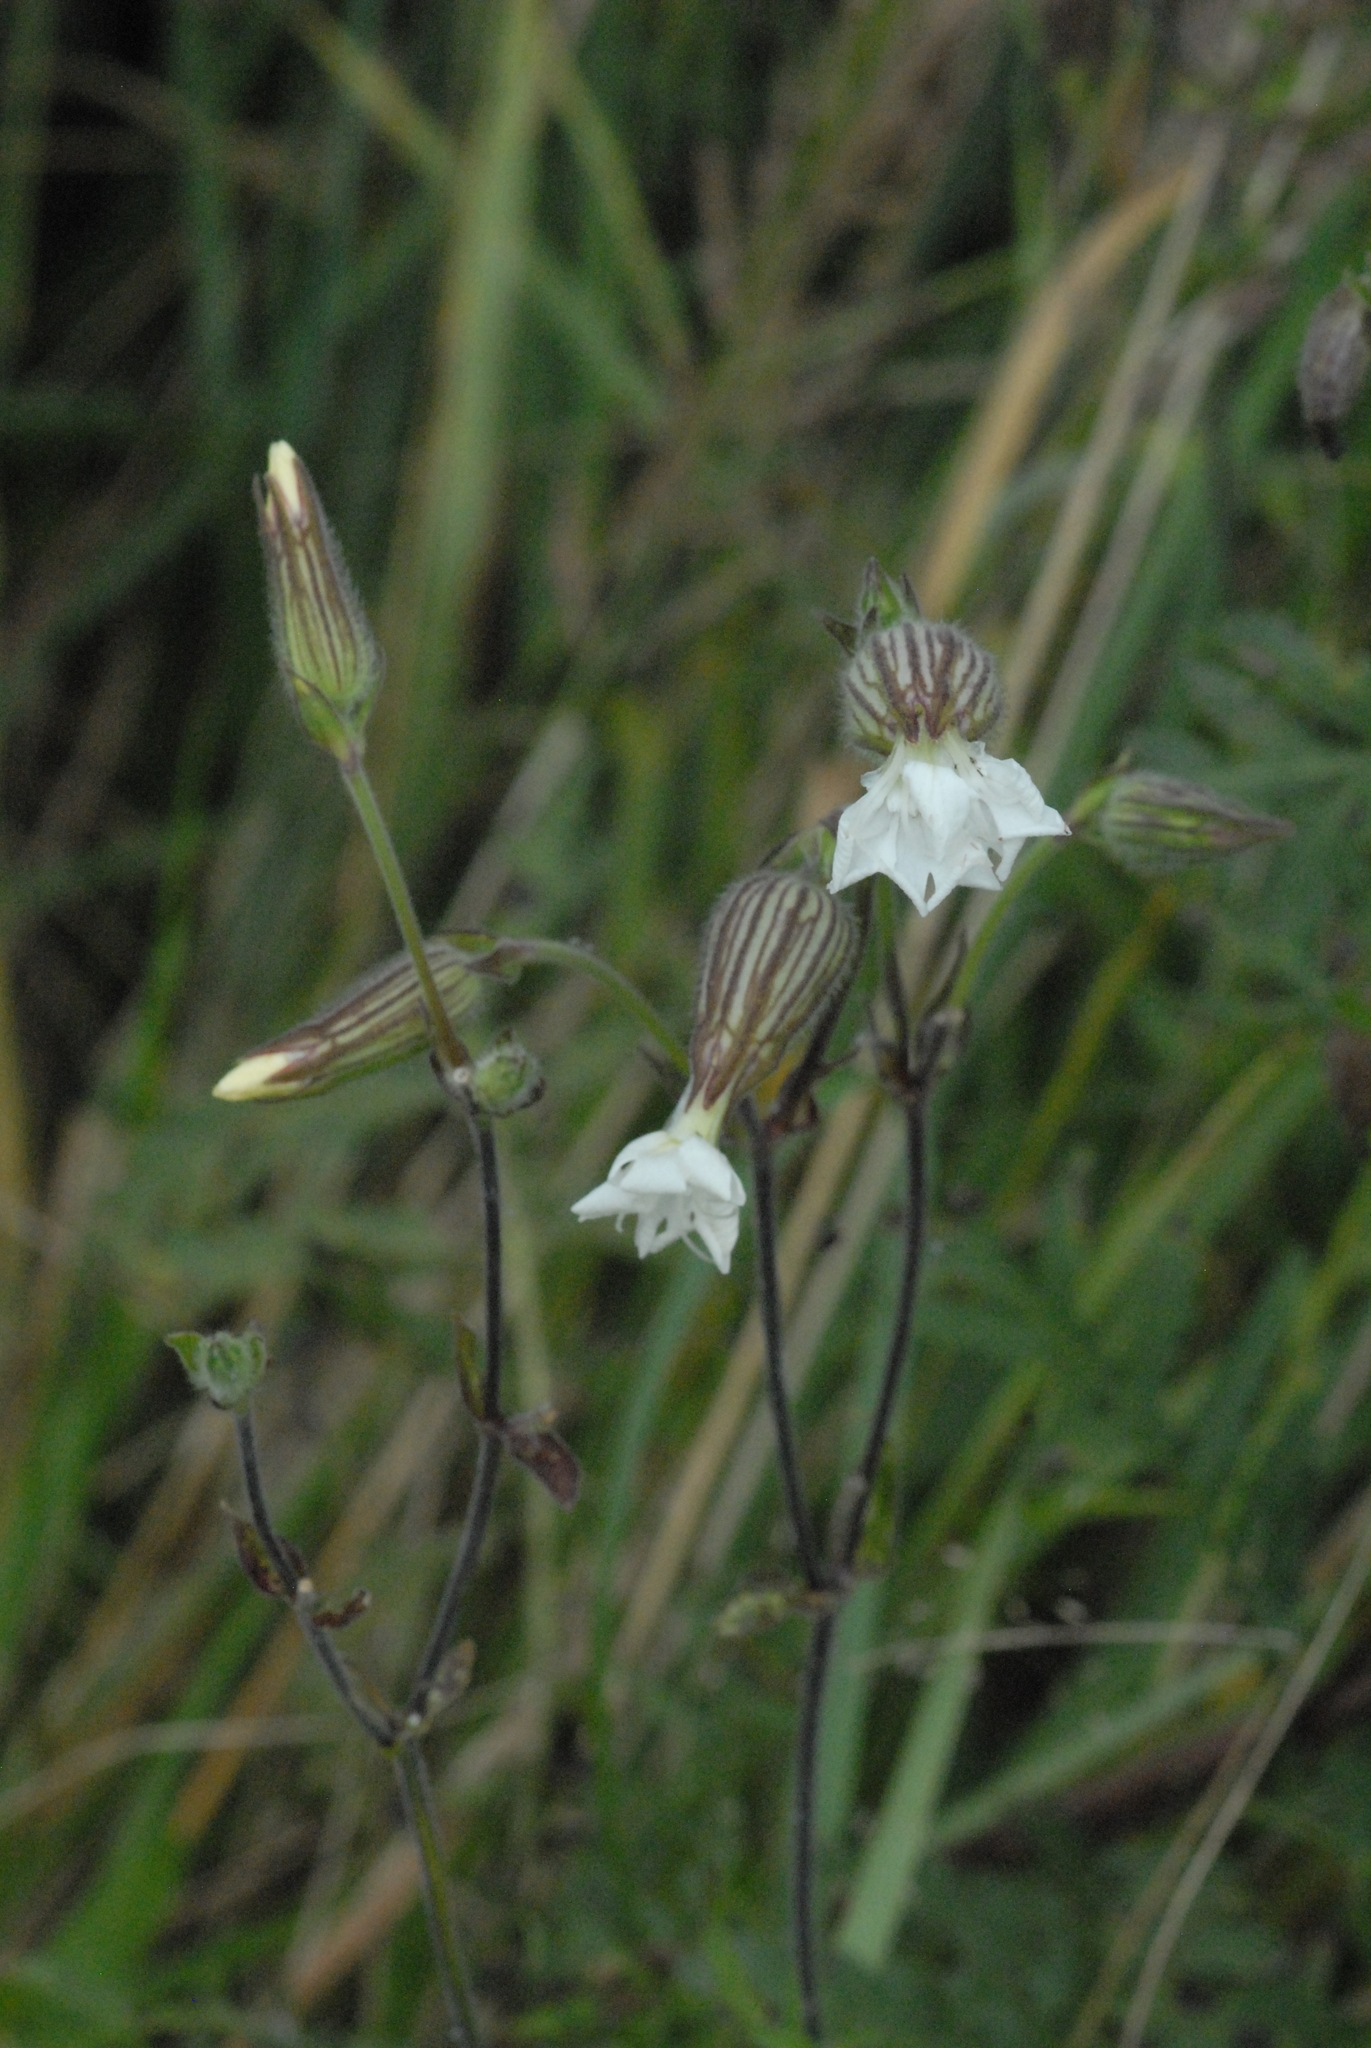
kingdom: Plantae
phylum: Tracheophyta
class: Magnoliopsida
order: Caryophyllales
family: Caryophyllaceae
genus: Silene
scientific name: Silene latifolia
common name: White campion
